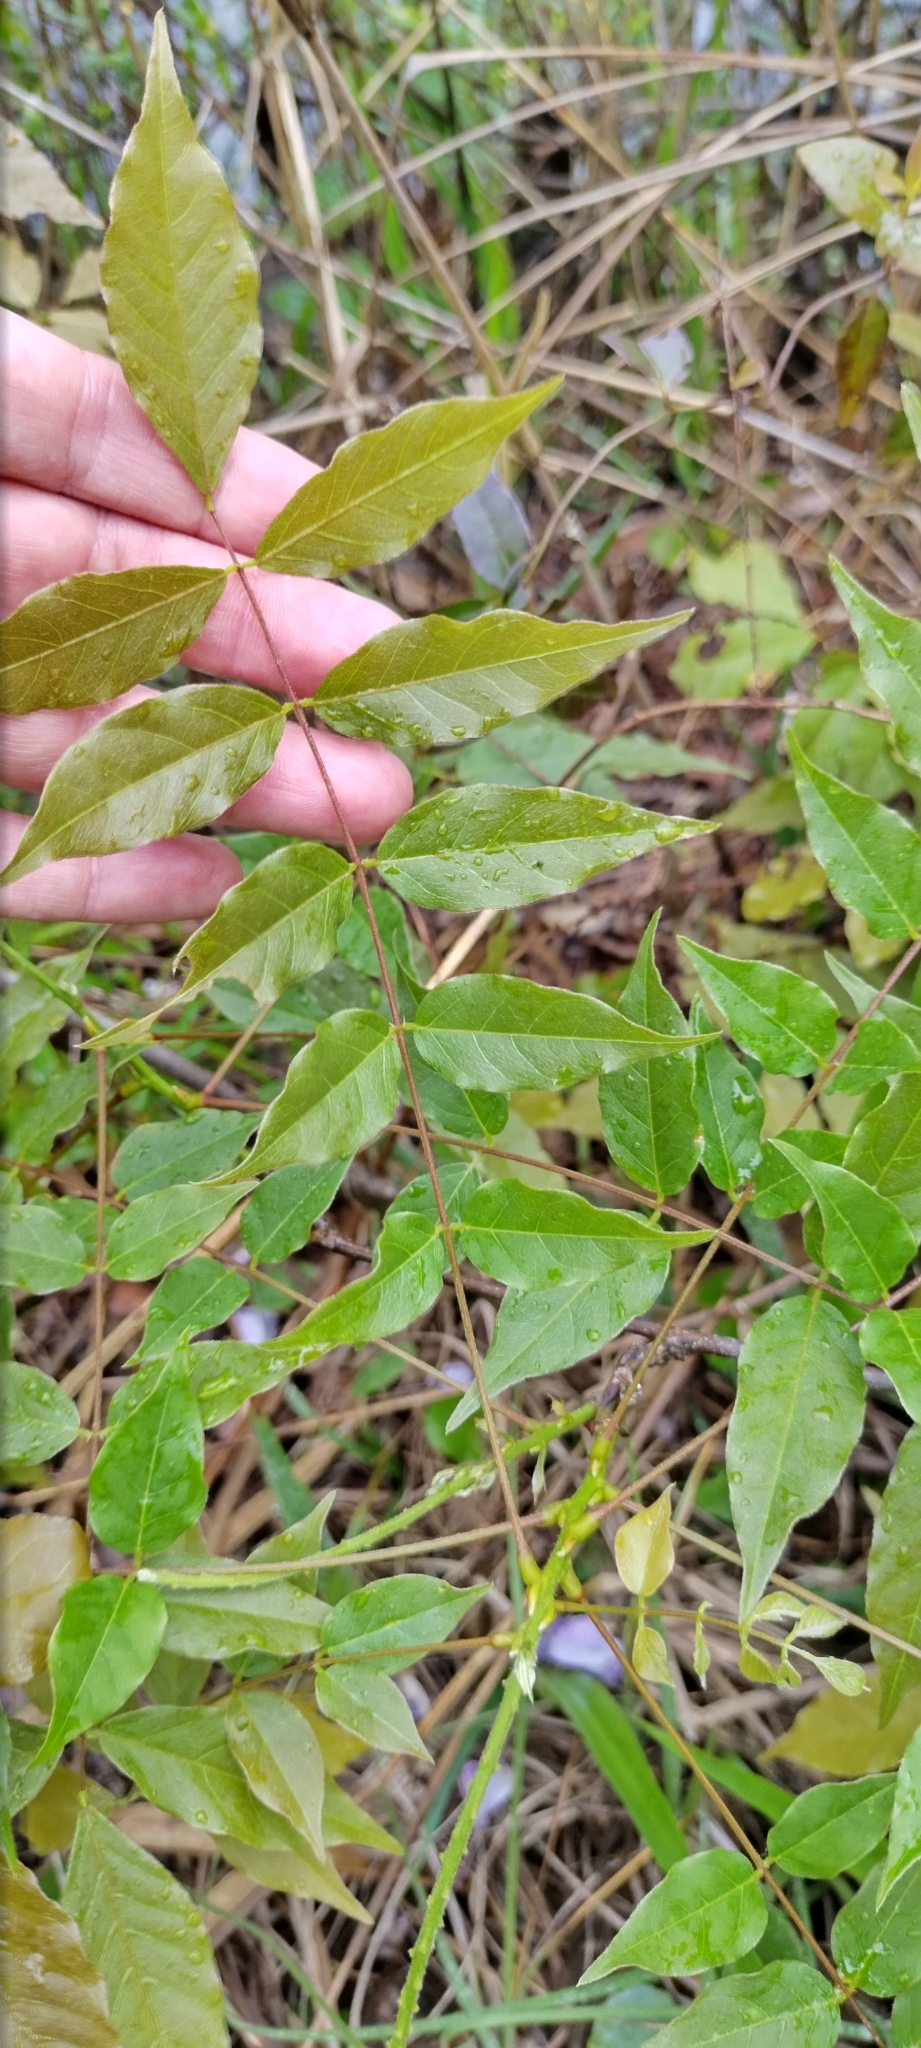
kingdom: Plantae
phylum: Tracheophyta
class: Magnoliopsida
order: Fabales
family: Fabaceae
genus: Wisteria
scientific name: Wisteria sinensis
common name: Chinese wisteria
